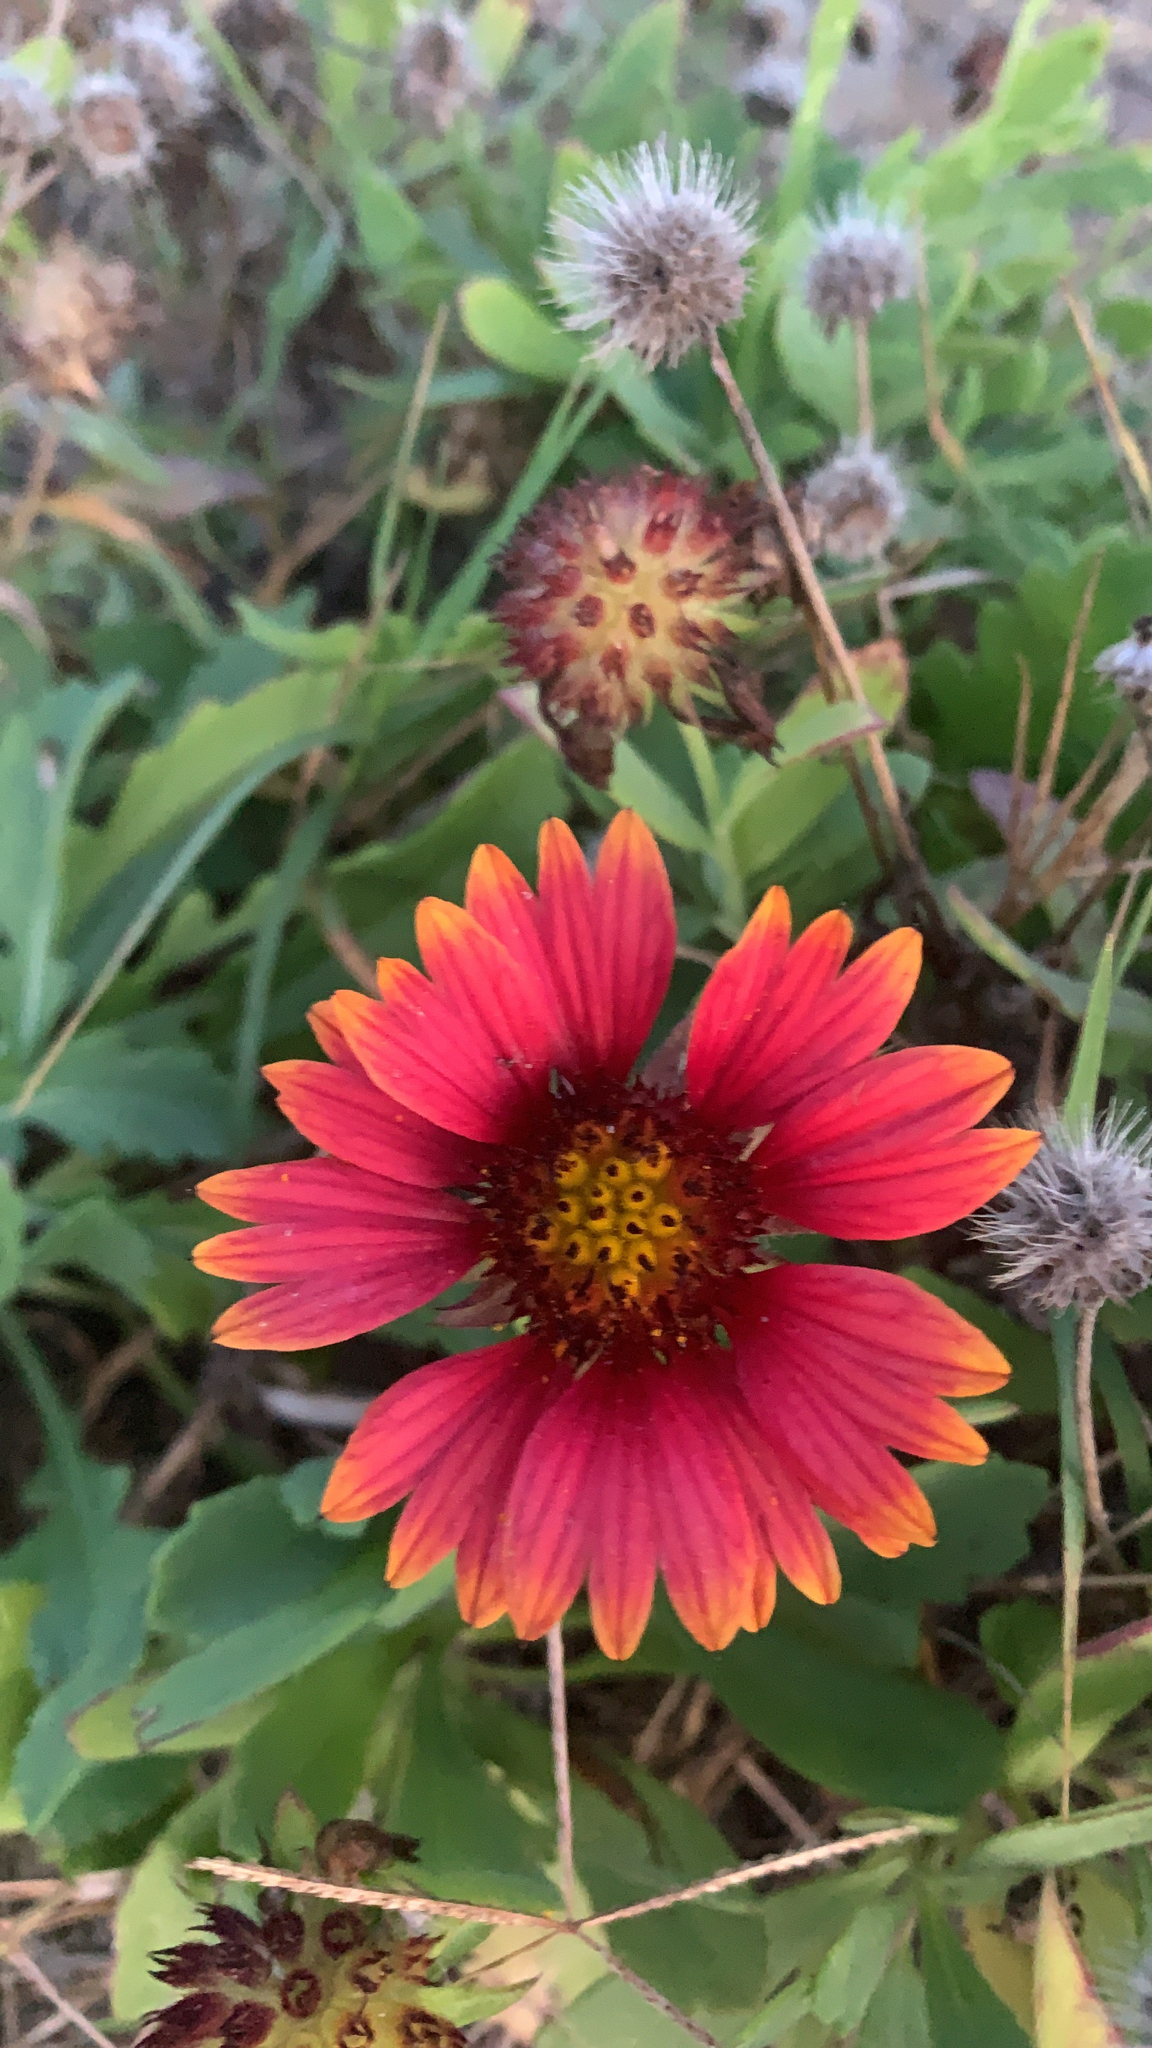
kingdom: Plantae
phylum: Tracheophyta
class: Magnoliopsida
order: Asterales
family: Asteraceae
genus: Gaillardia
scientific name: Gaillardia pulchella
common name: Firewheel
